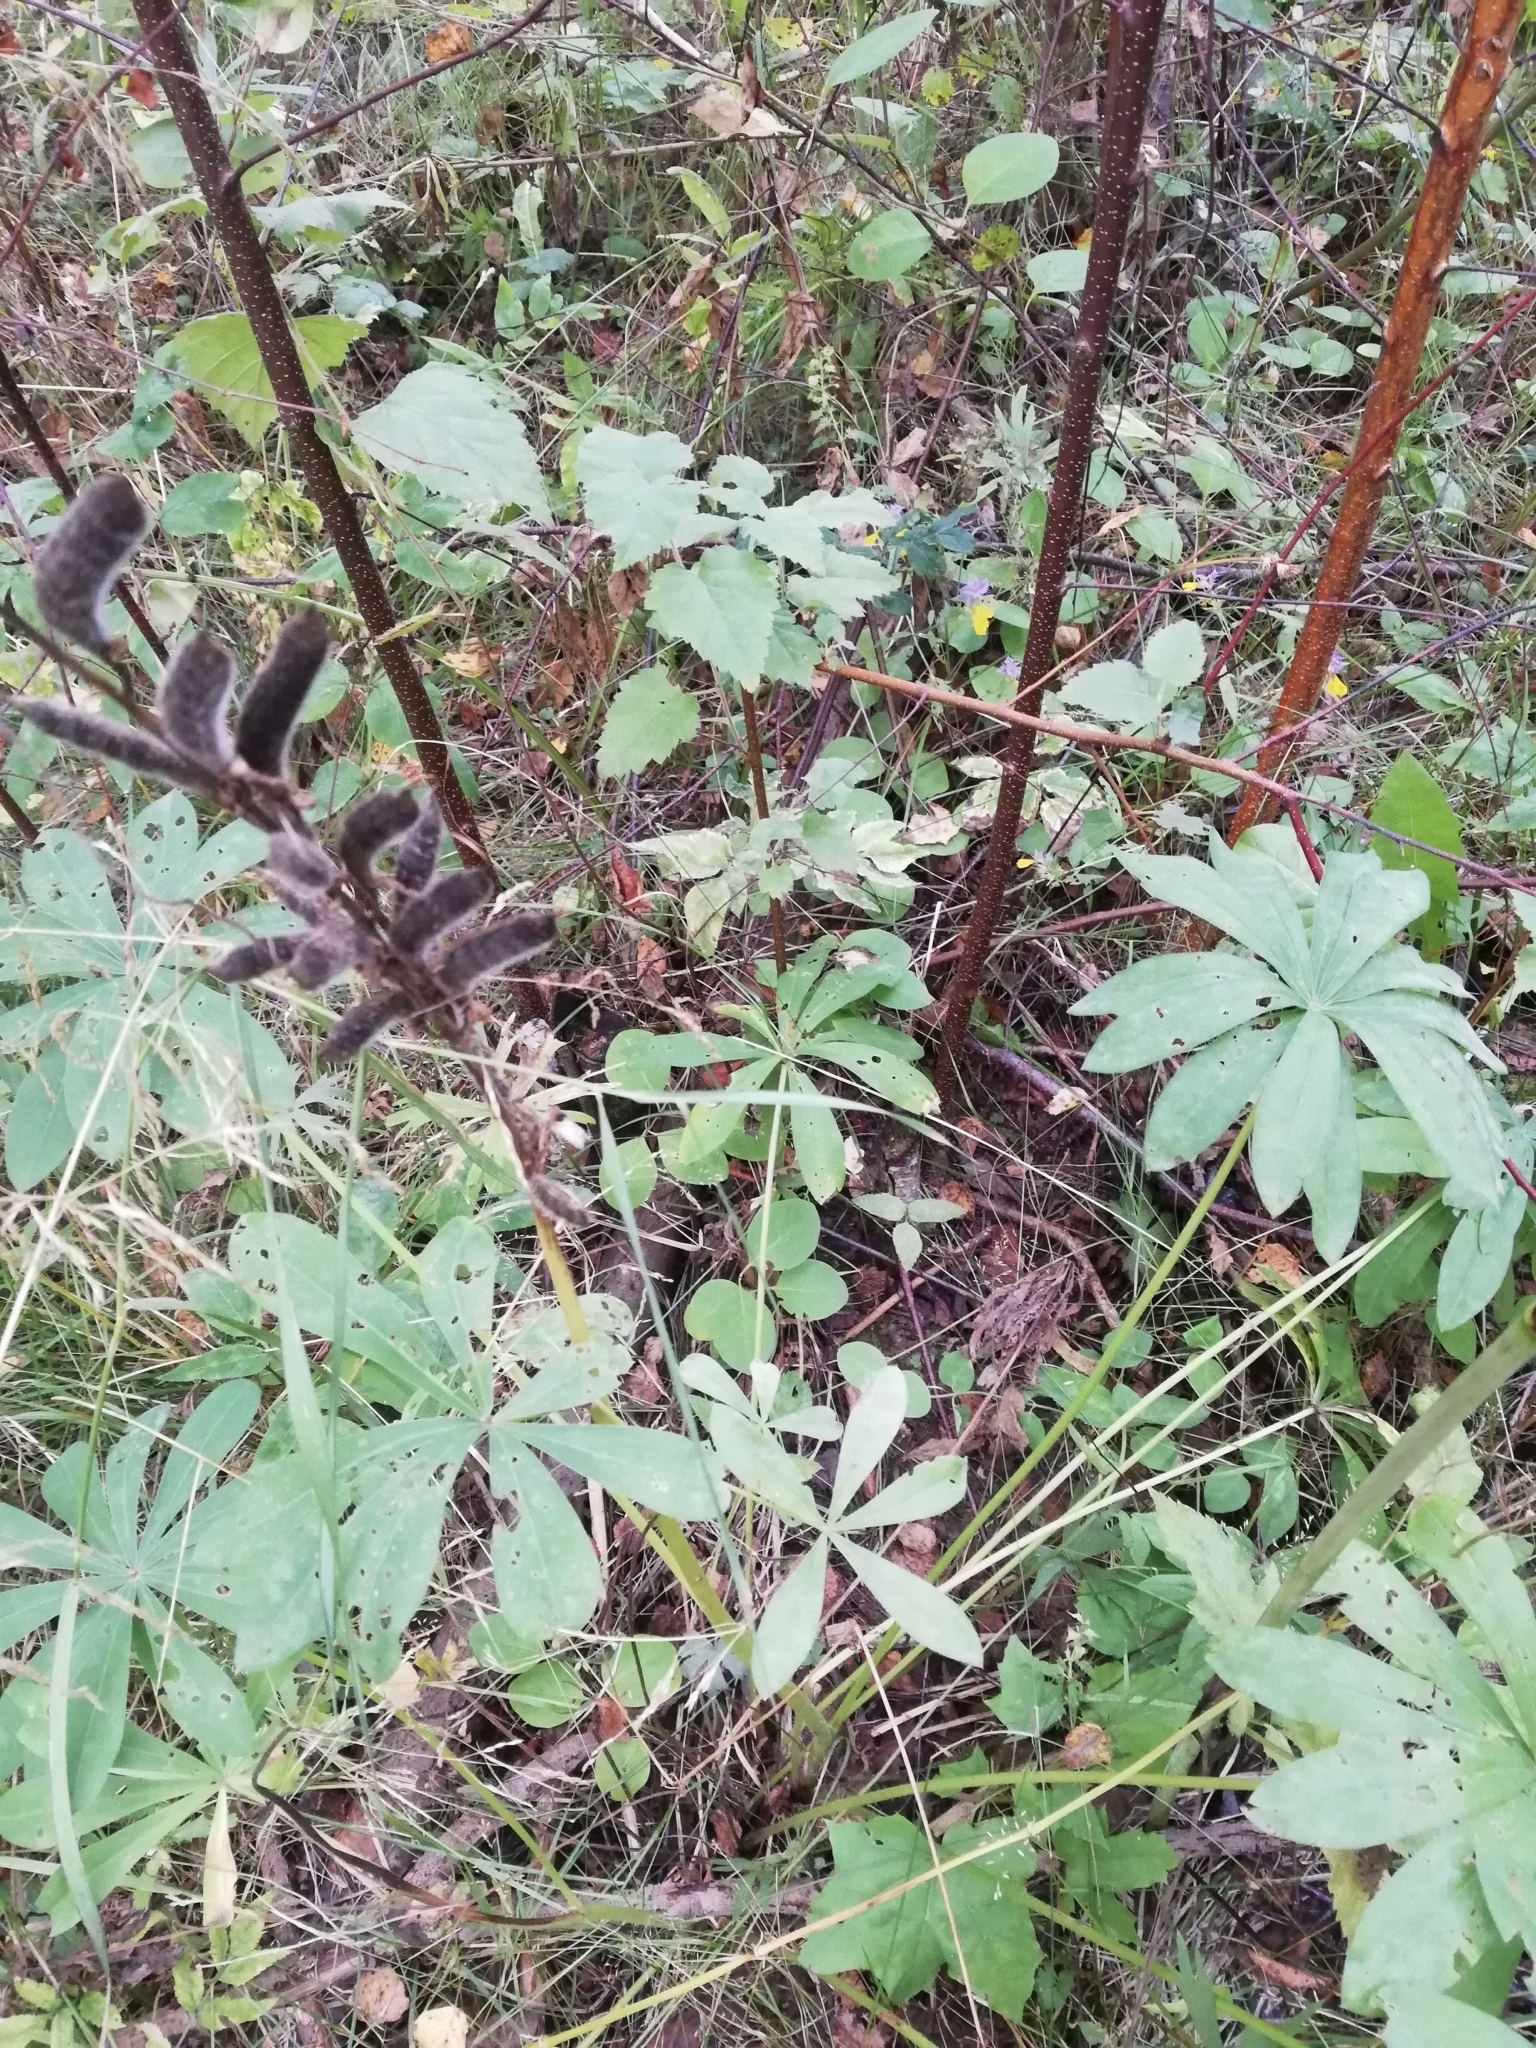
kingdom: Plantae
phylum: Tracheophyta
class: Magnoliopsida
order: Fabales
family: Fabaceae
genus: Lupinus
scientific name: Lupinus polyphyllus
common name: Garden lupin
